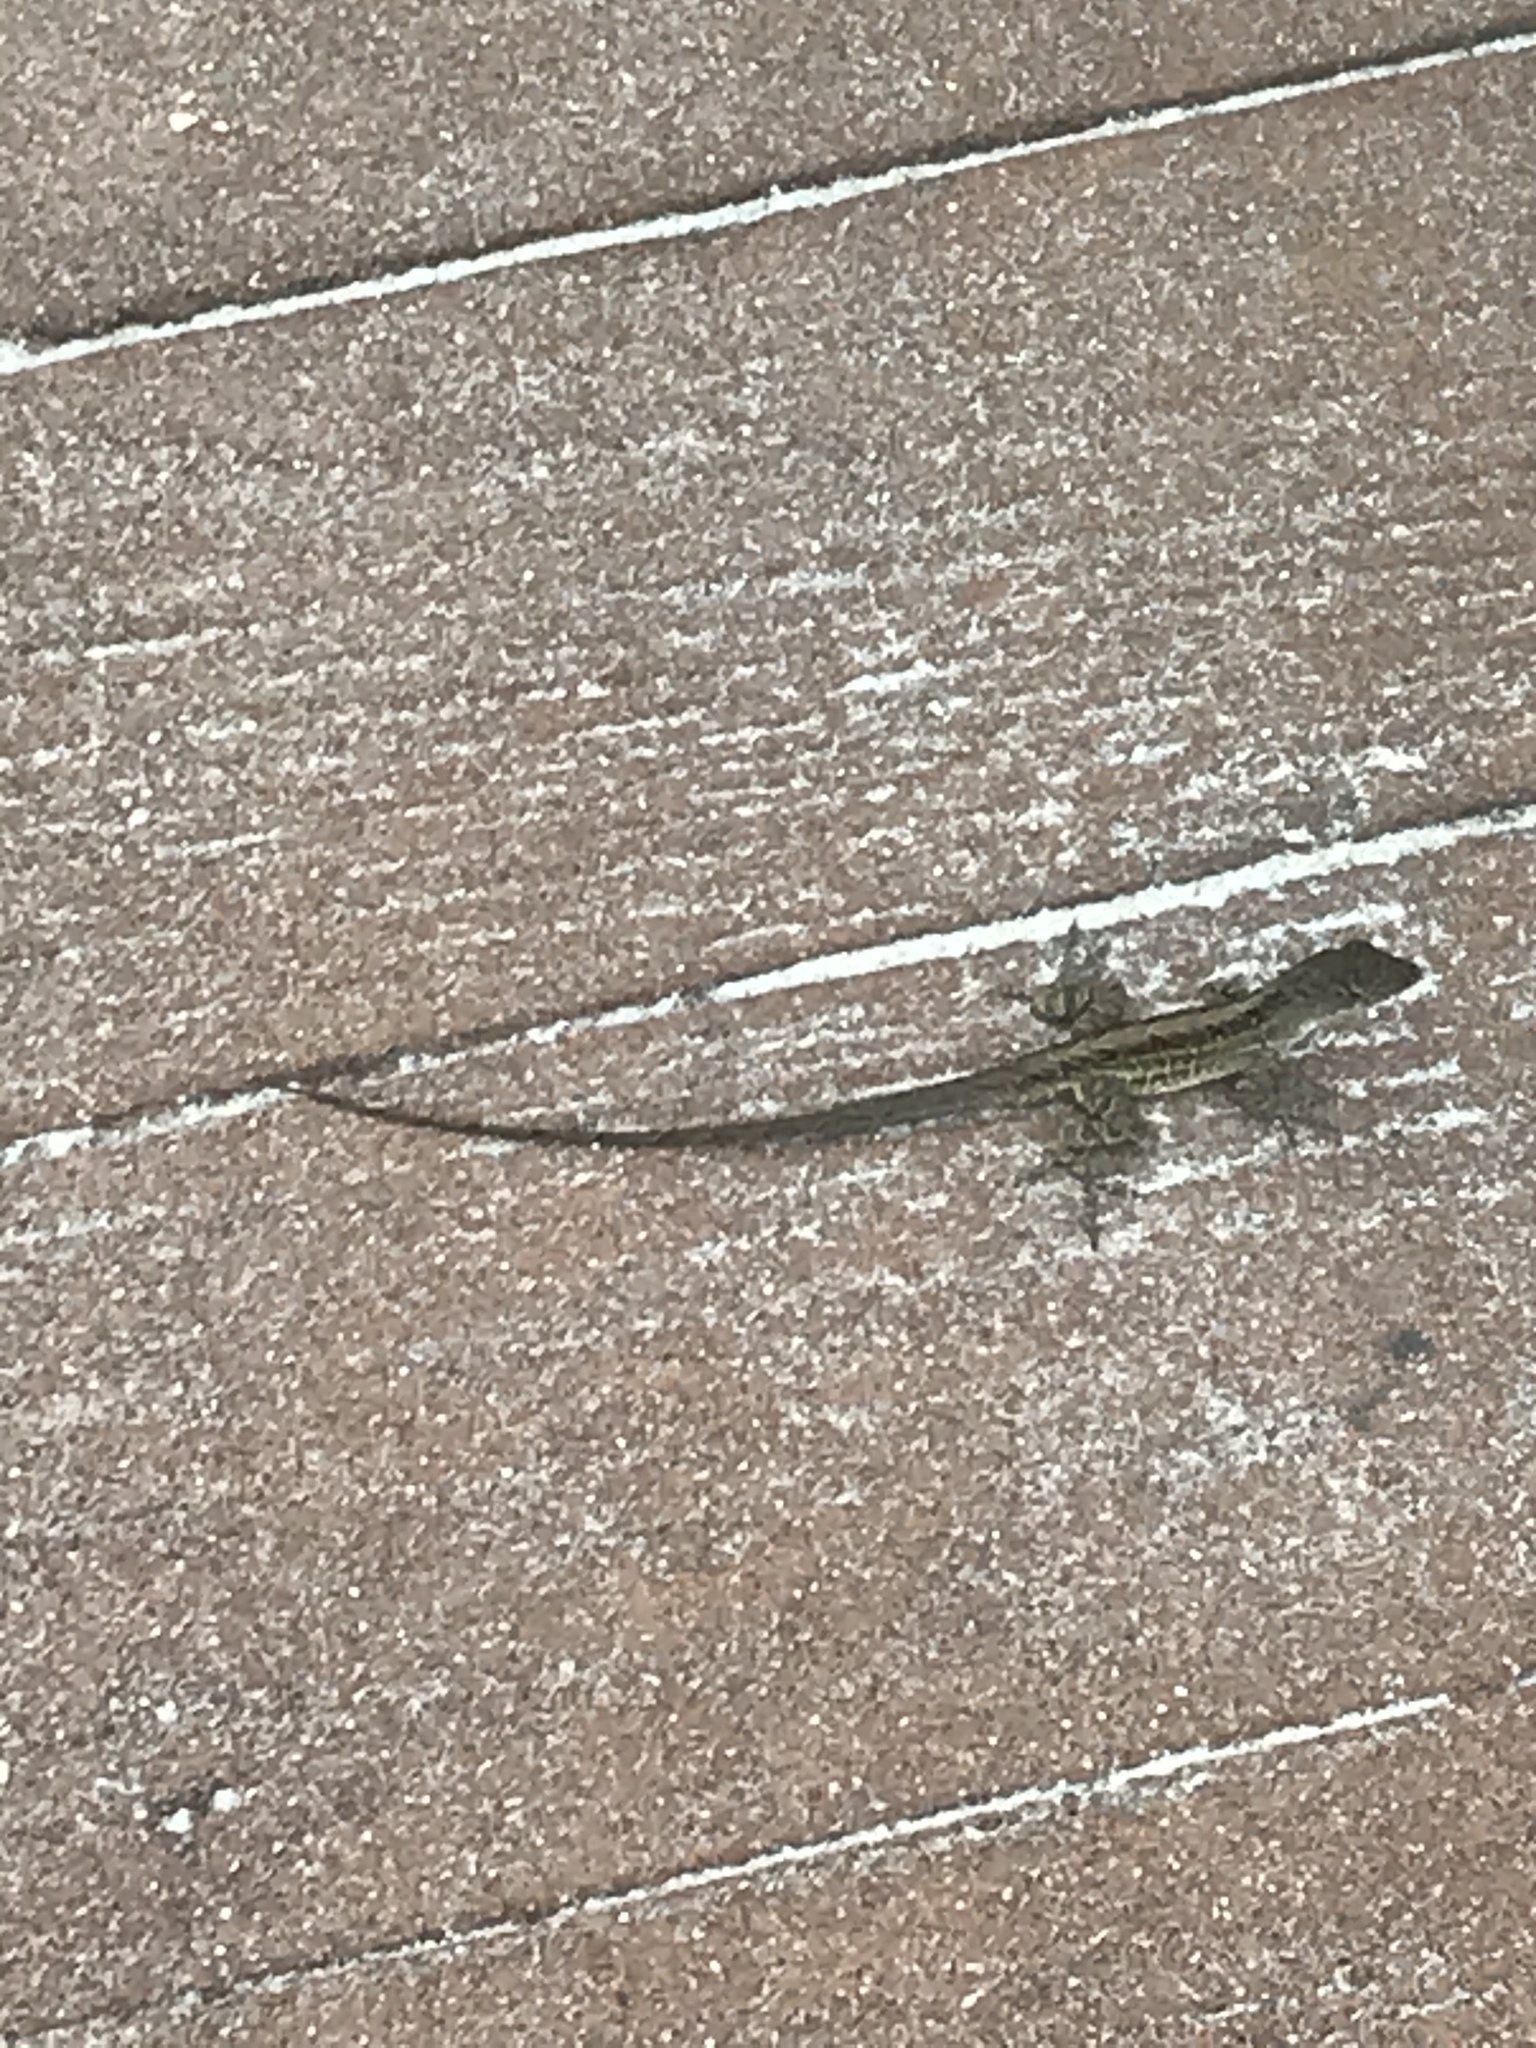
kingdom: Animalia
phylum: Chordata
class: Squamata
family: Dactyloidae
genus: Anolis
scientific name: Anolis sagrei
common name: Brown anole
